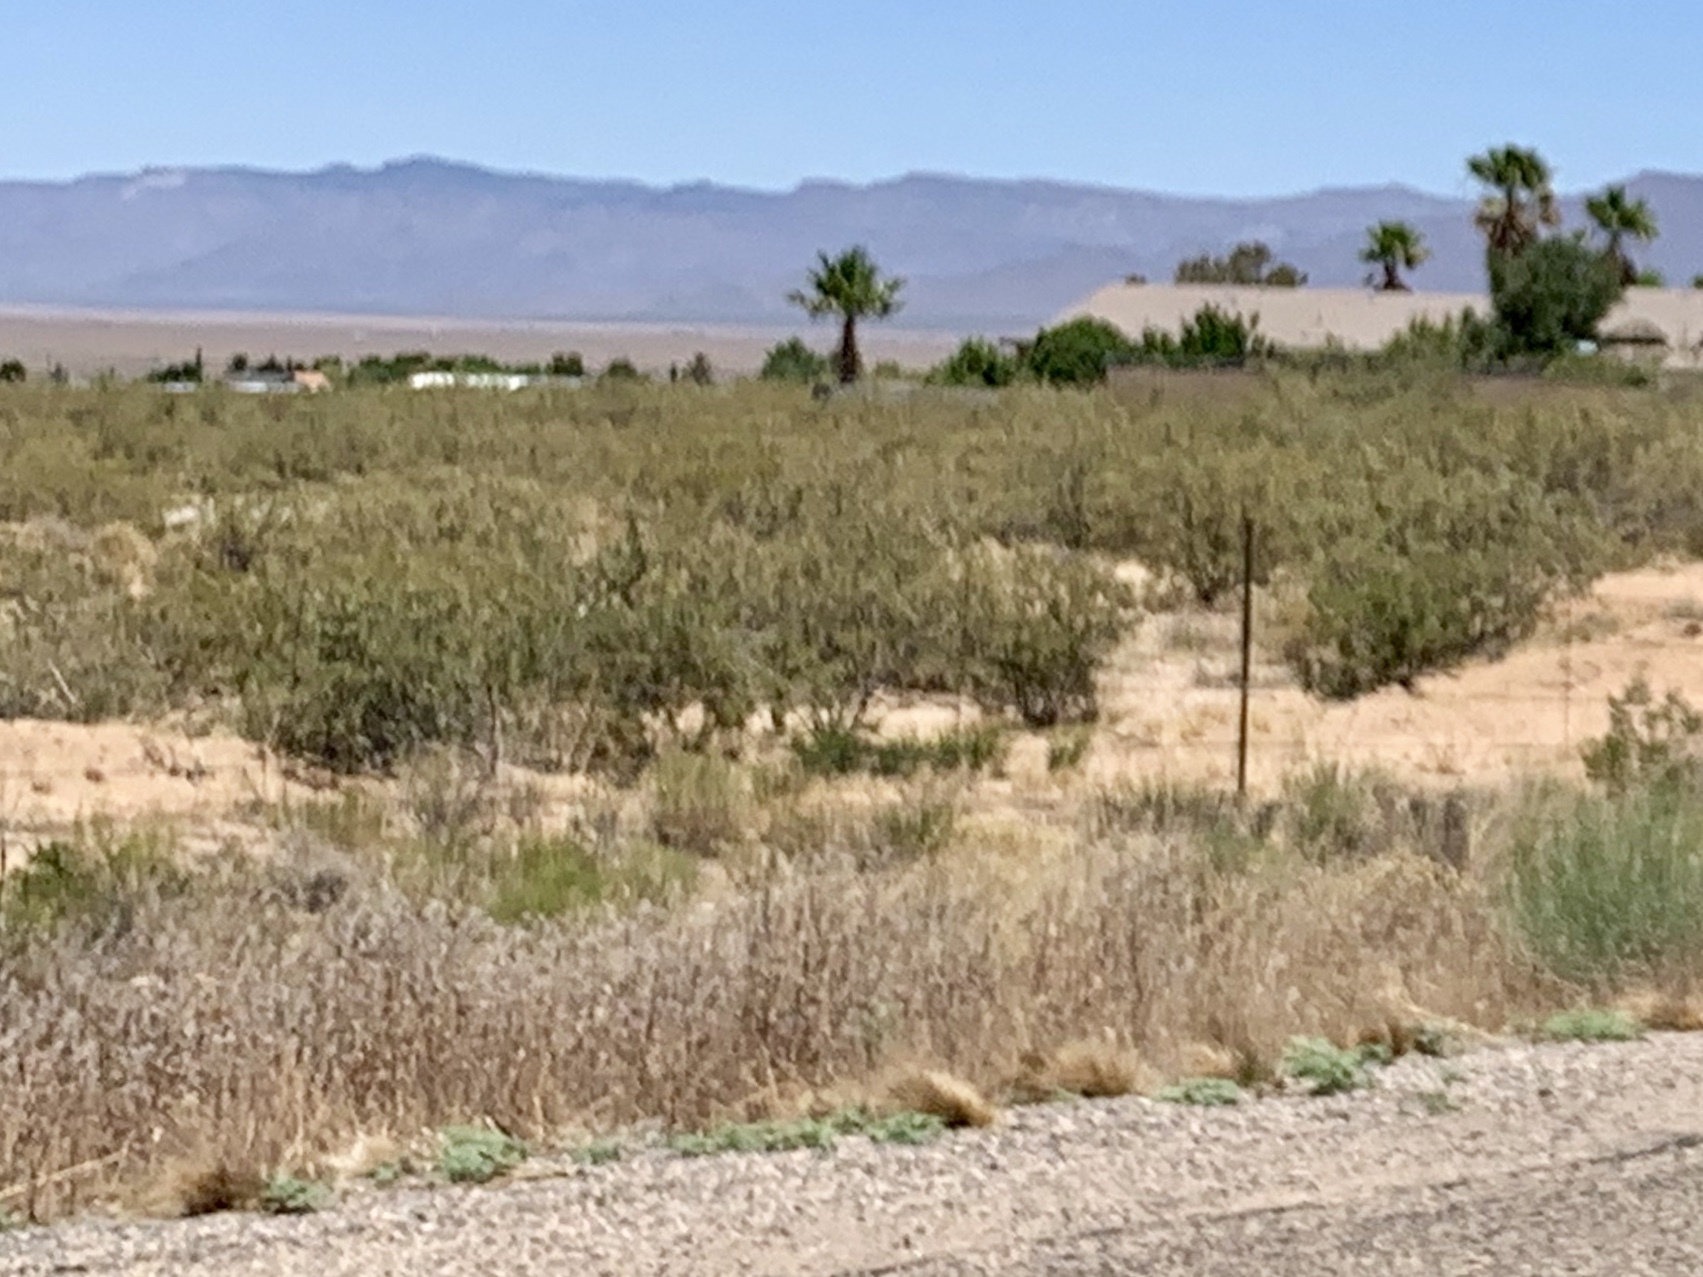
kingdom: Plantae
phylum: Tracheophyta
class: Magnoliopsida
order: Zygophyllales
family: Zygophyllaceae
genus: Larrea
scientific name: Larrea tridentata
